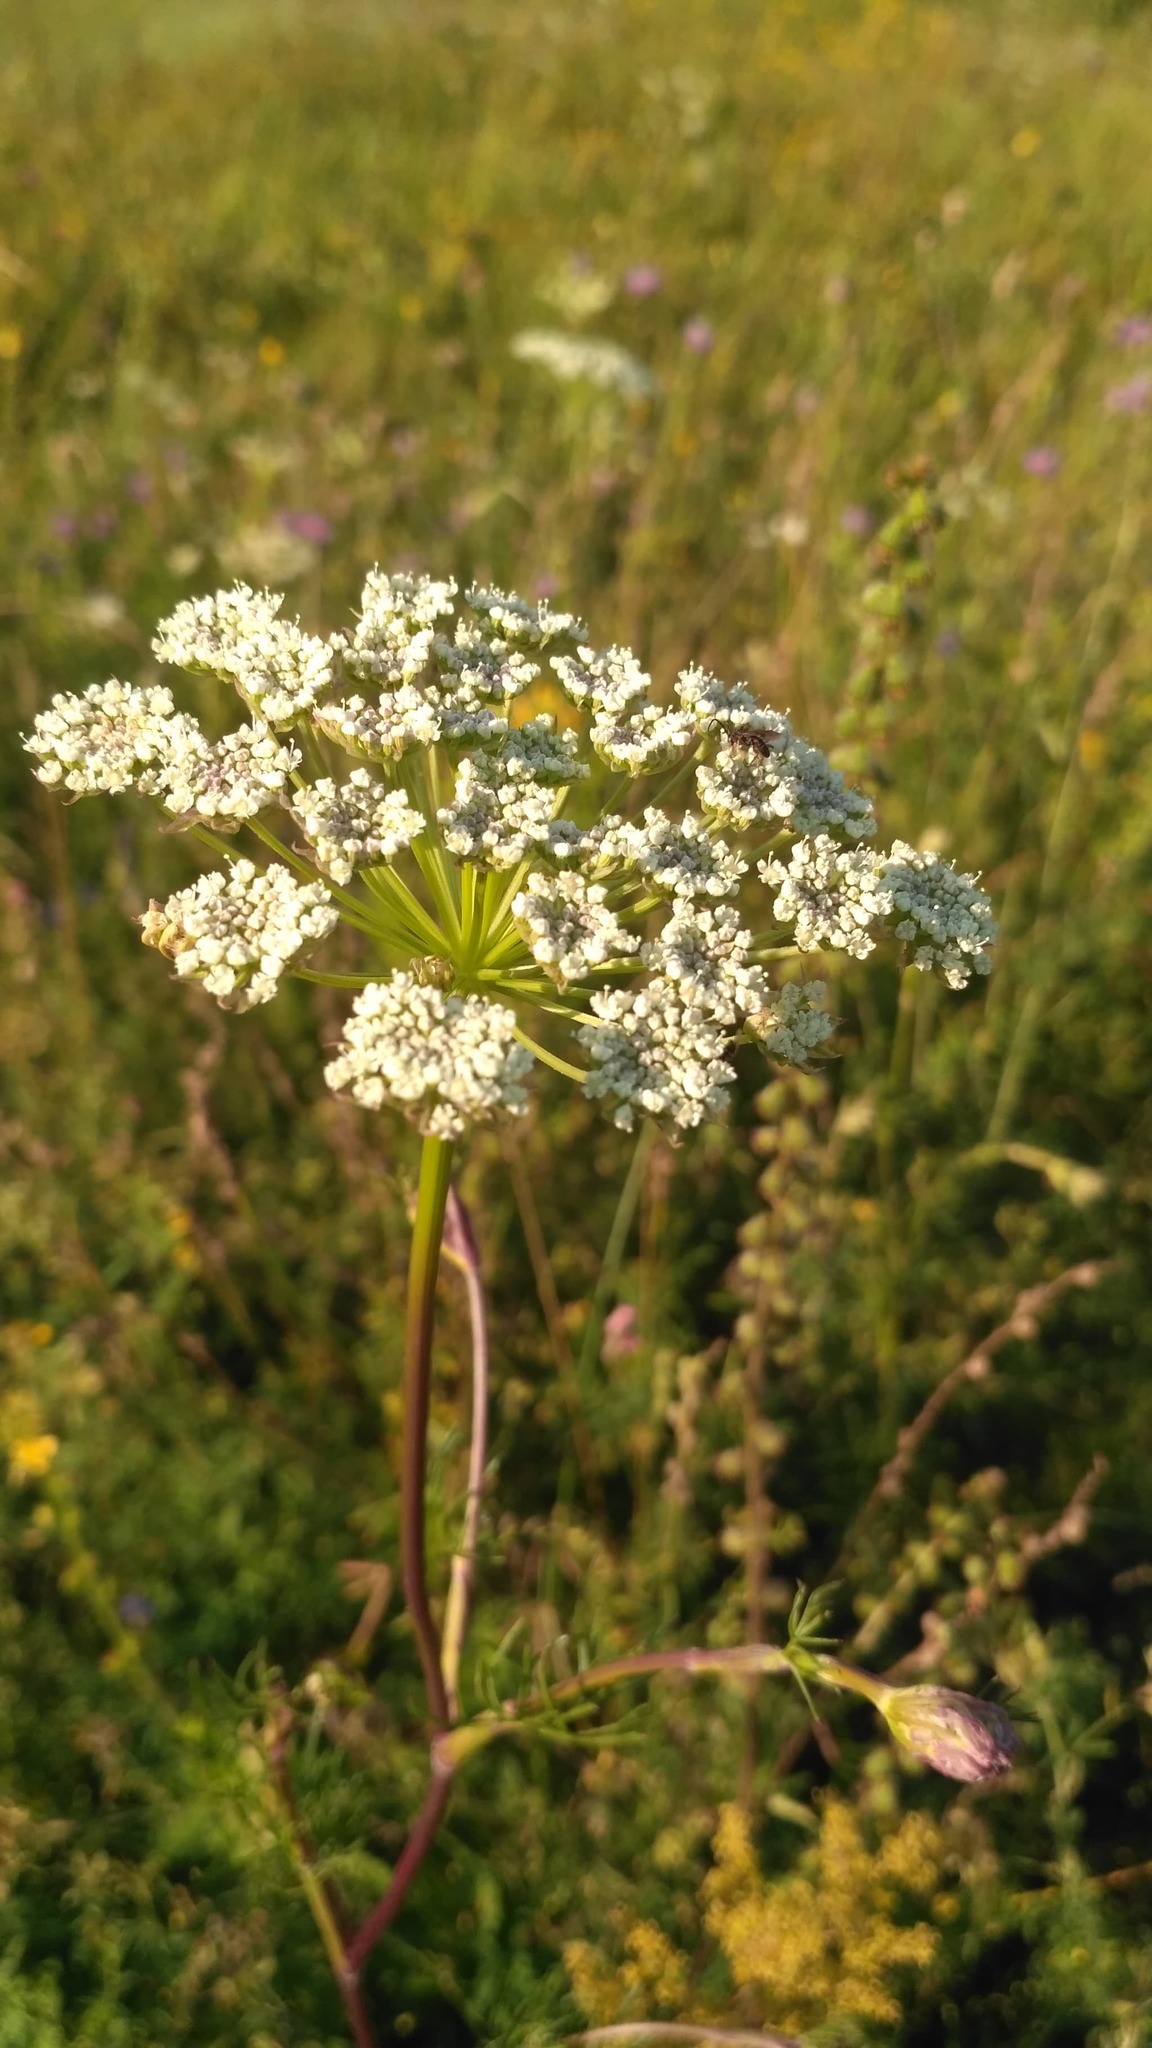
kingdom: Plantae
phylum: Tracheophyta
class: Magnoliopsida
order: Apiales
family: Apiaceae
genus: Seseli
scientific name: Seseli annuum
